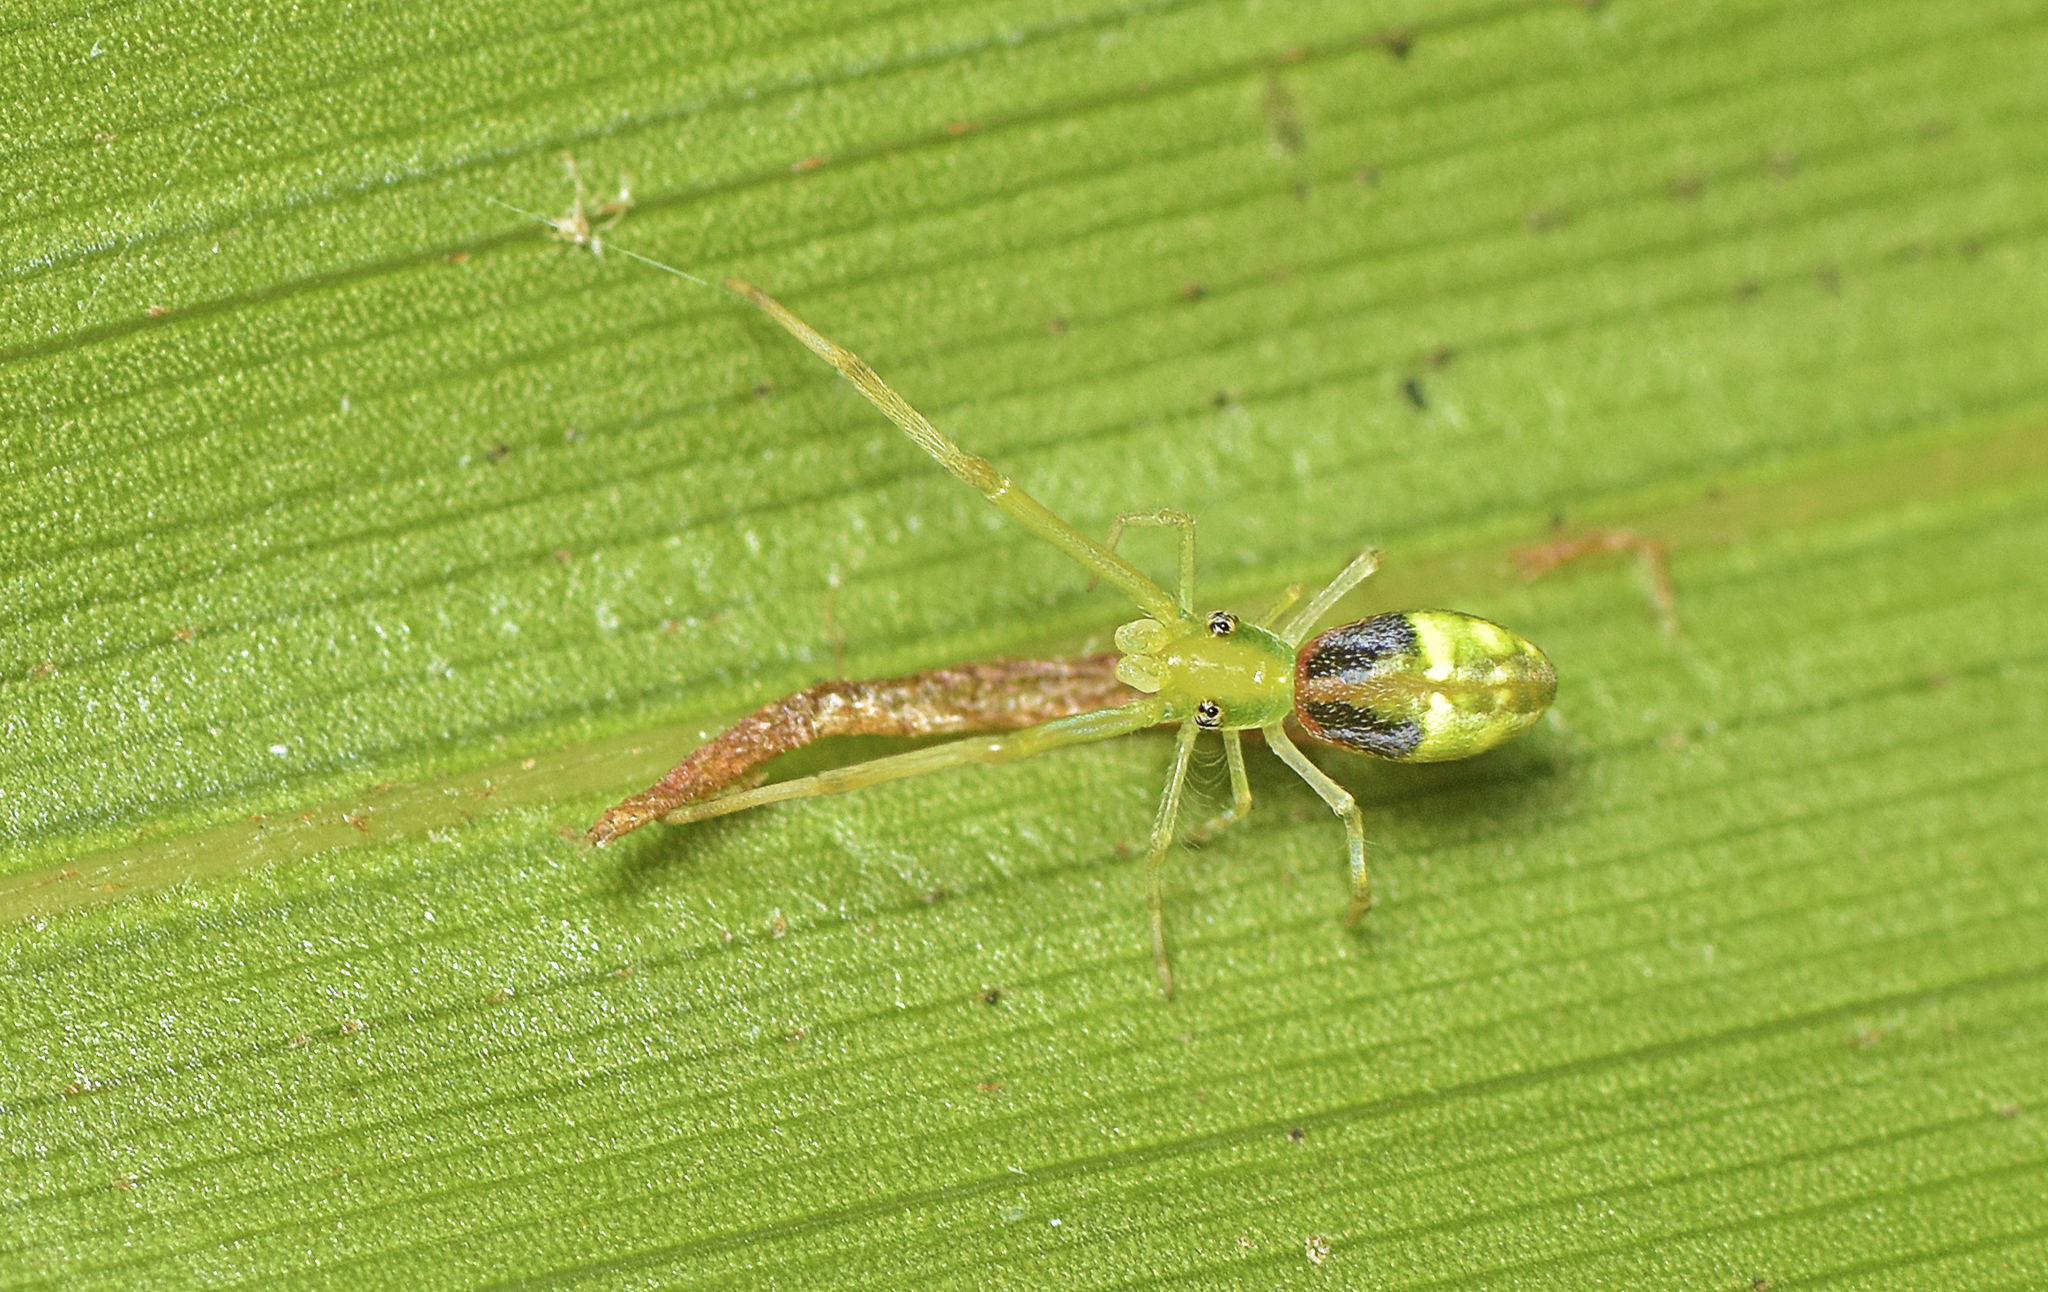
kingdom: Animalia
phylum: Arthropoda
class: Arachnida
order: Araneae
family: Uloboridae
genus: Miagrammopes
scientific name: Miagrammopes flavus
